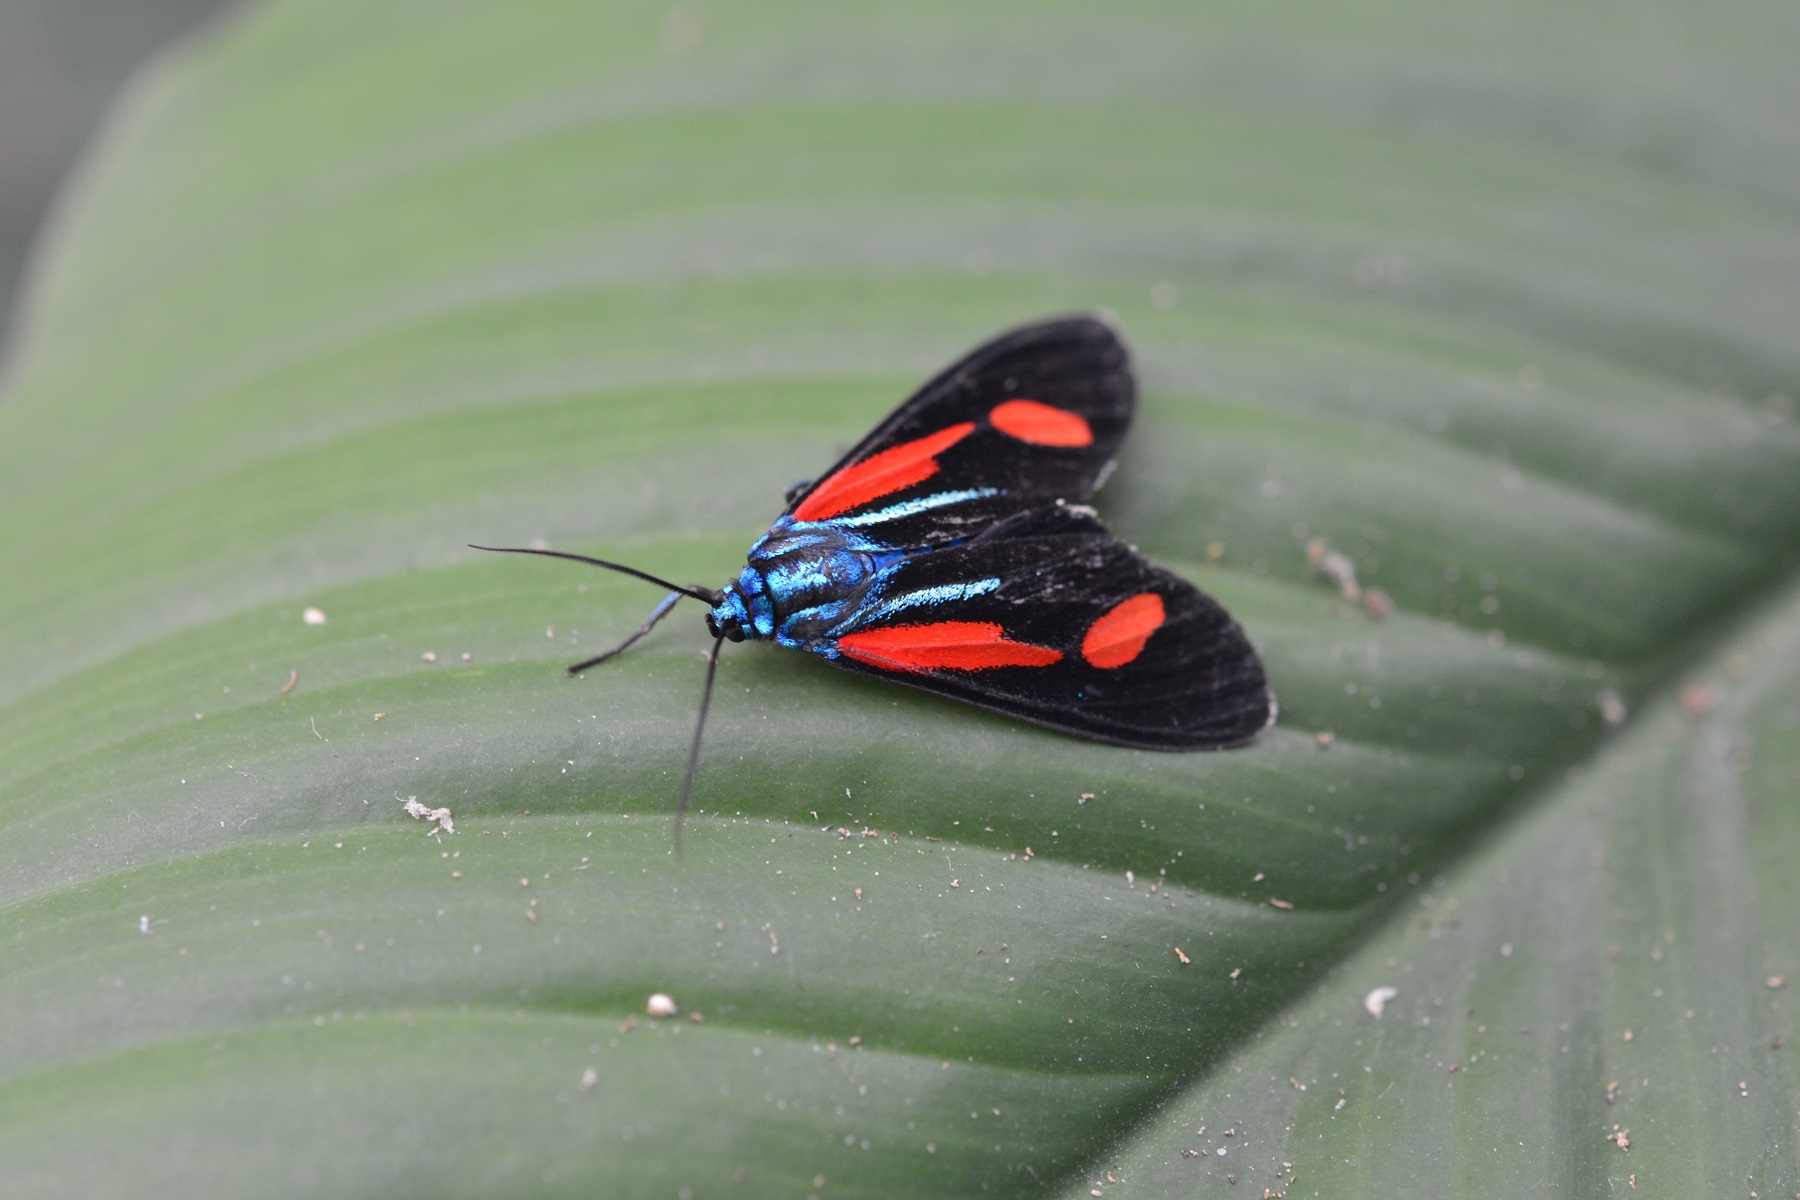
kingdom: Animalia
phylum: Arthropoda
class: Insecta
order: Lepidoptera
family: Erebidae
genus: Cyanopepla
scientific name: Cyanopepla jucunda
